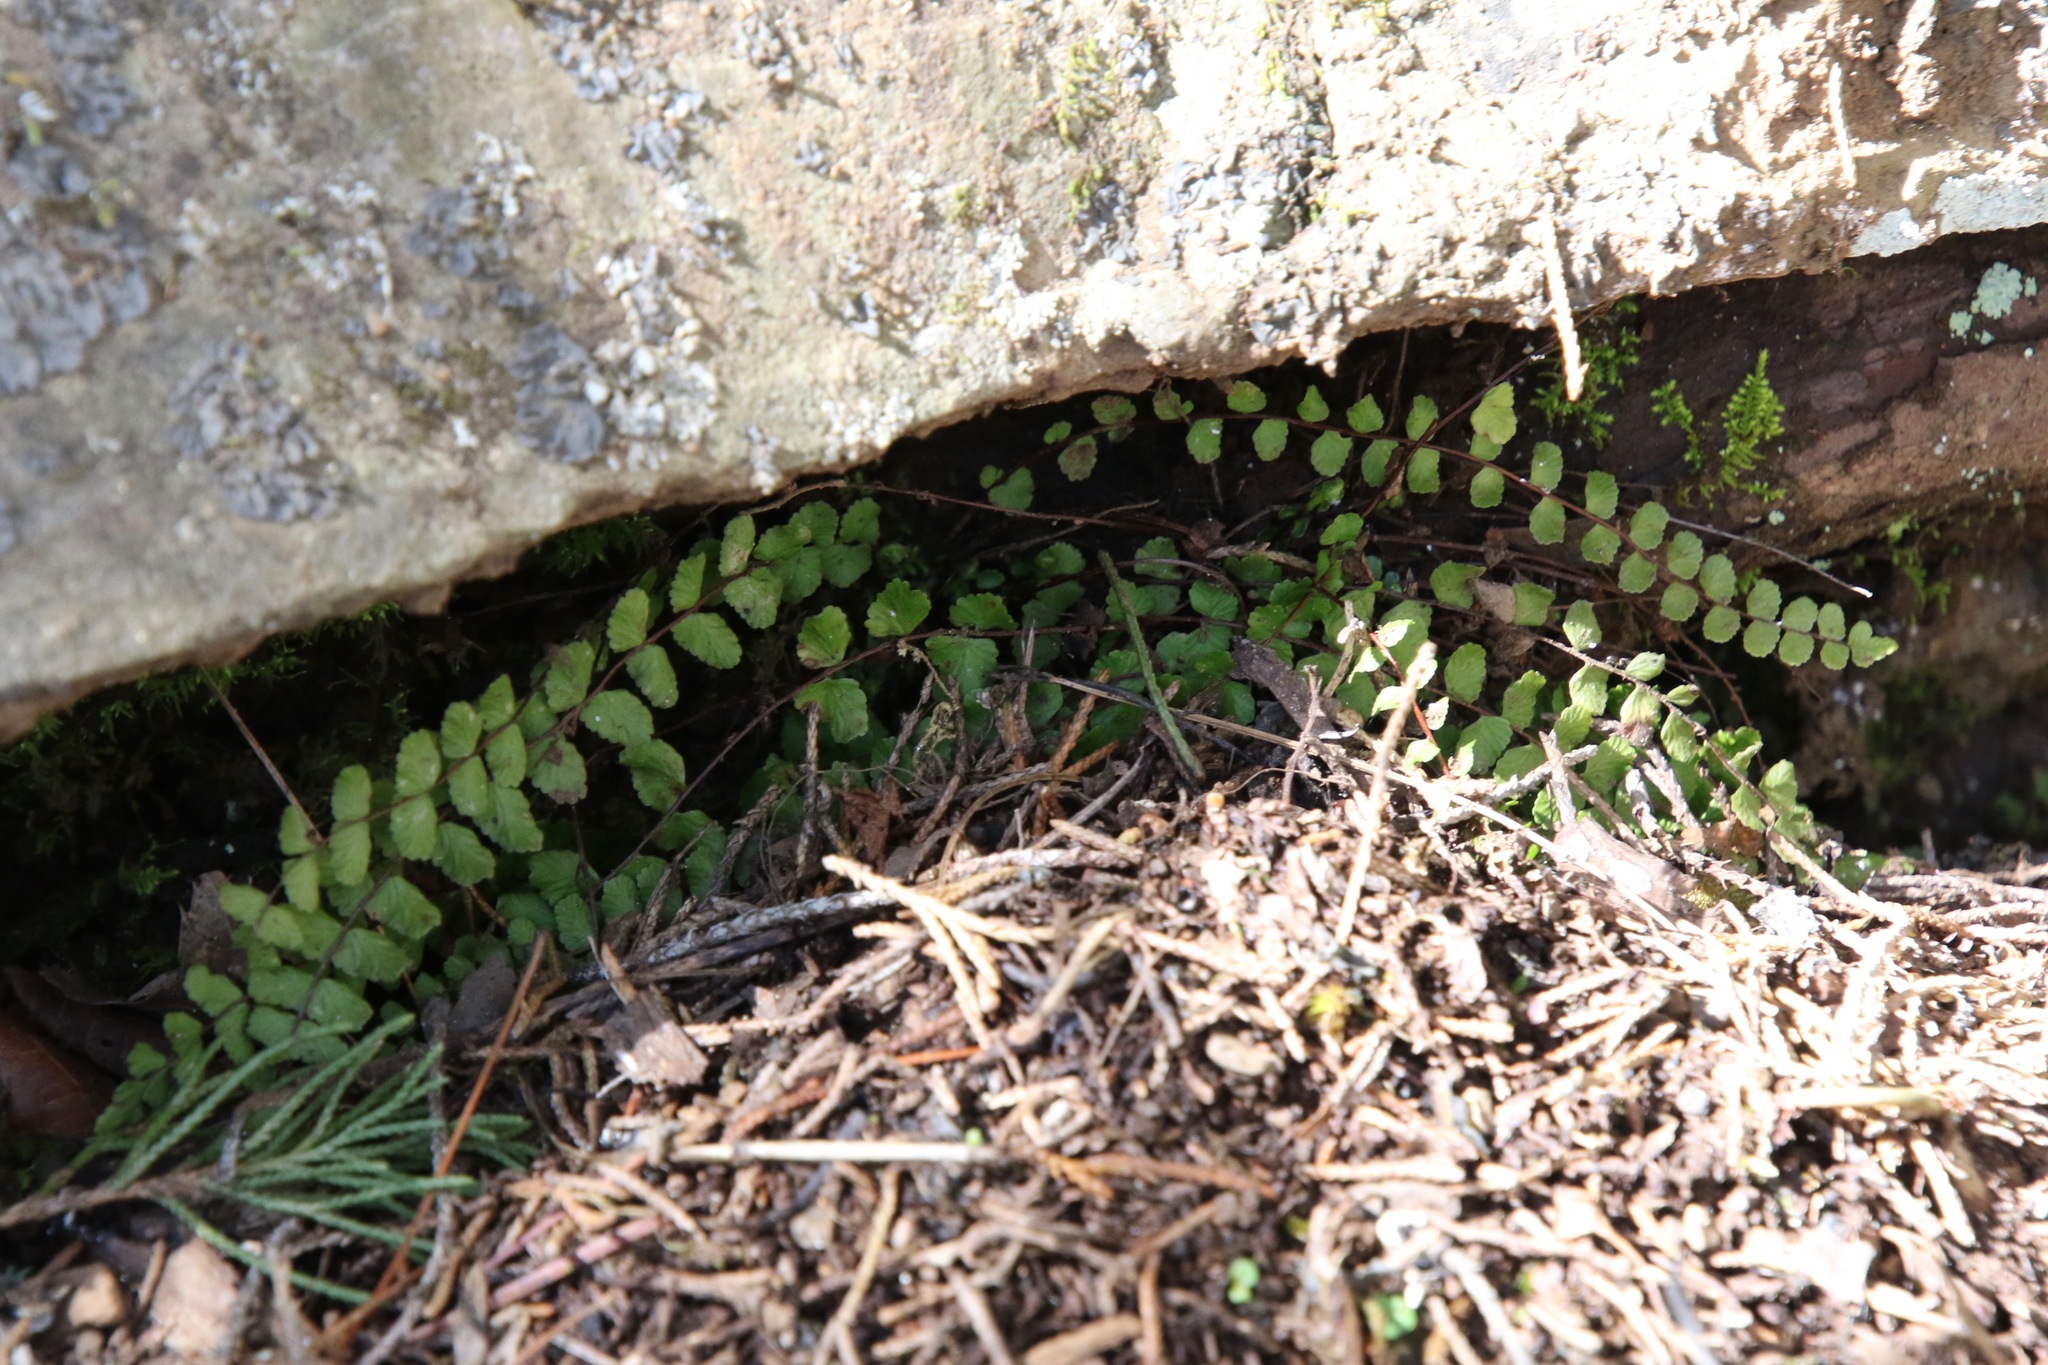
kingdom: Plantae
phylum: Tracheophyta
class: Polypodiopsida
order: Polypodiales
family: Aspleniaceae
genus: Asplenium
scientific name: Asplenium trichomanes
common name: Maidenhair spleenwort
